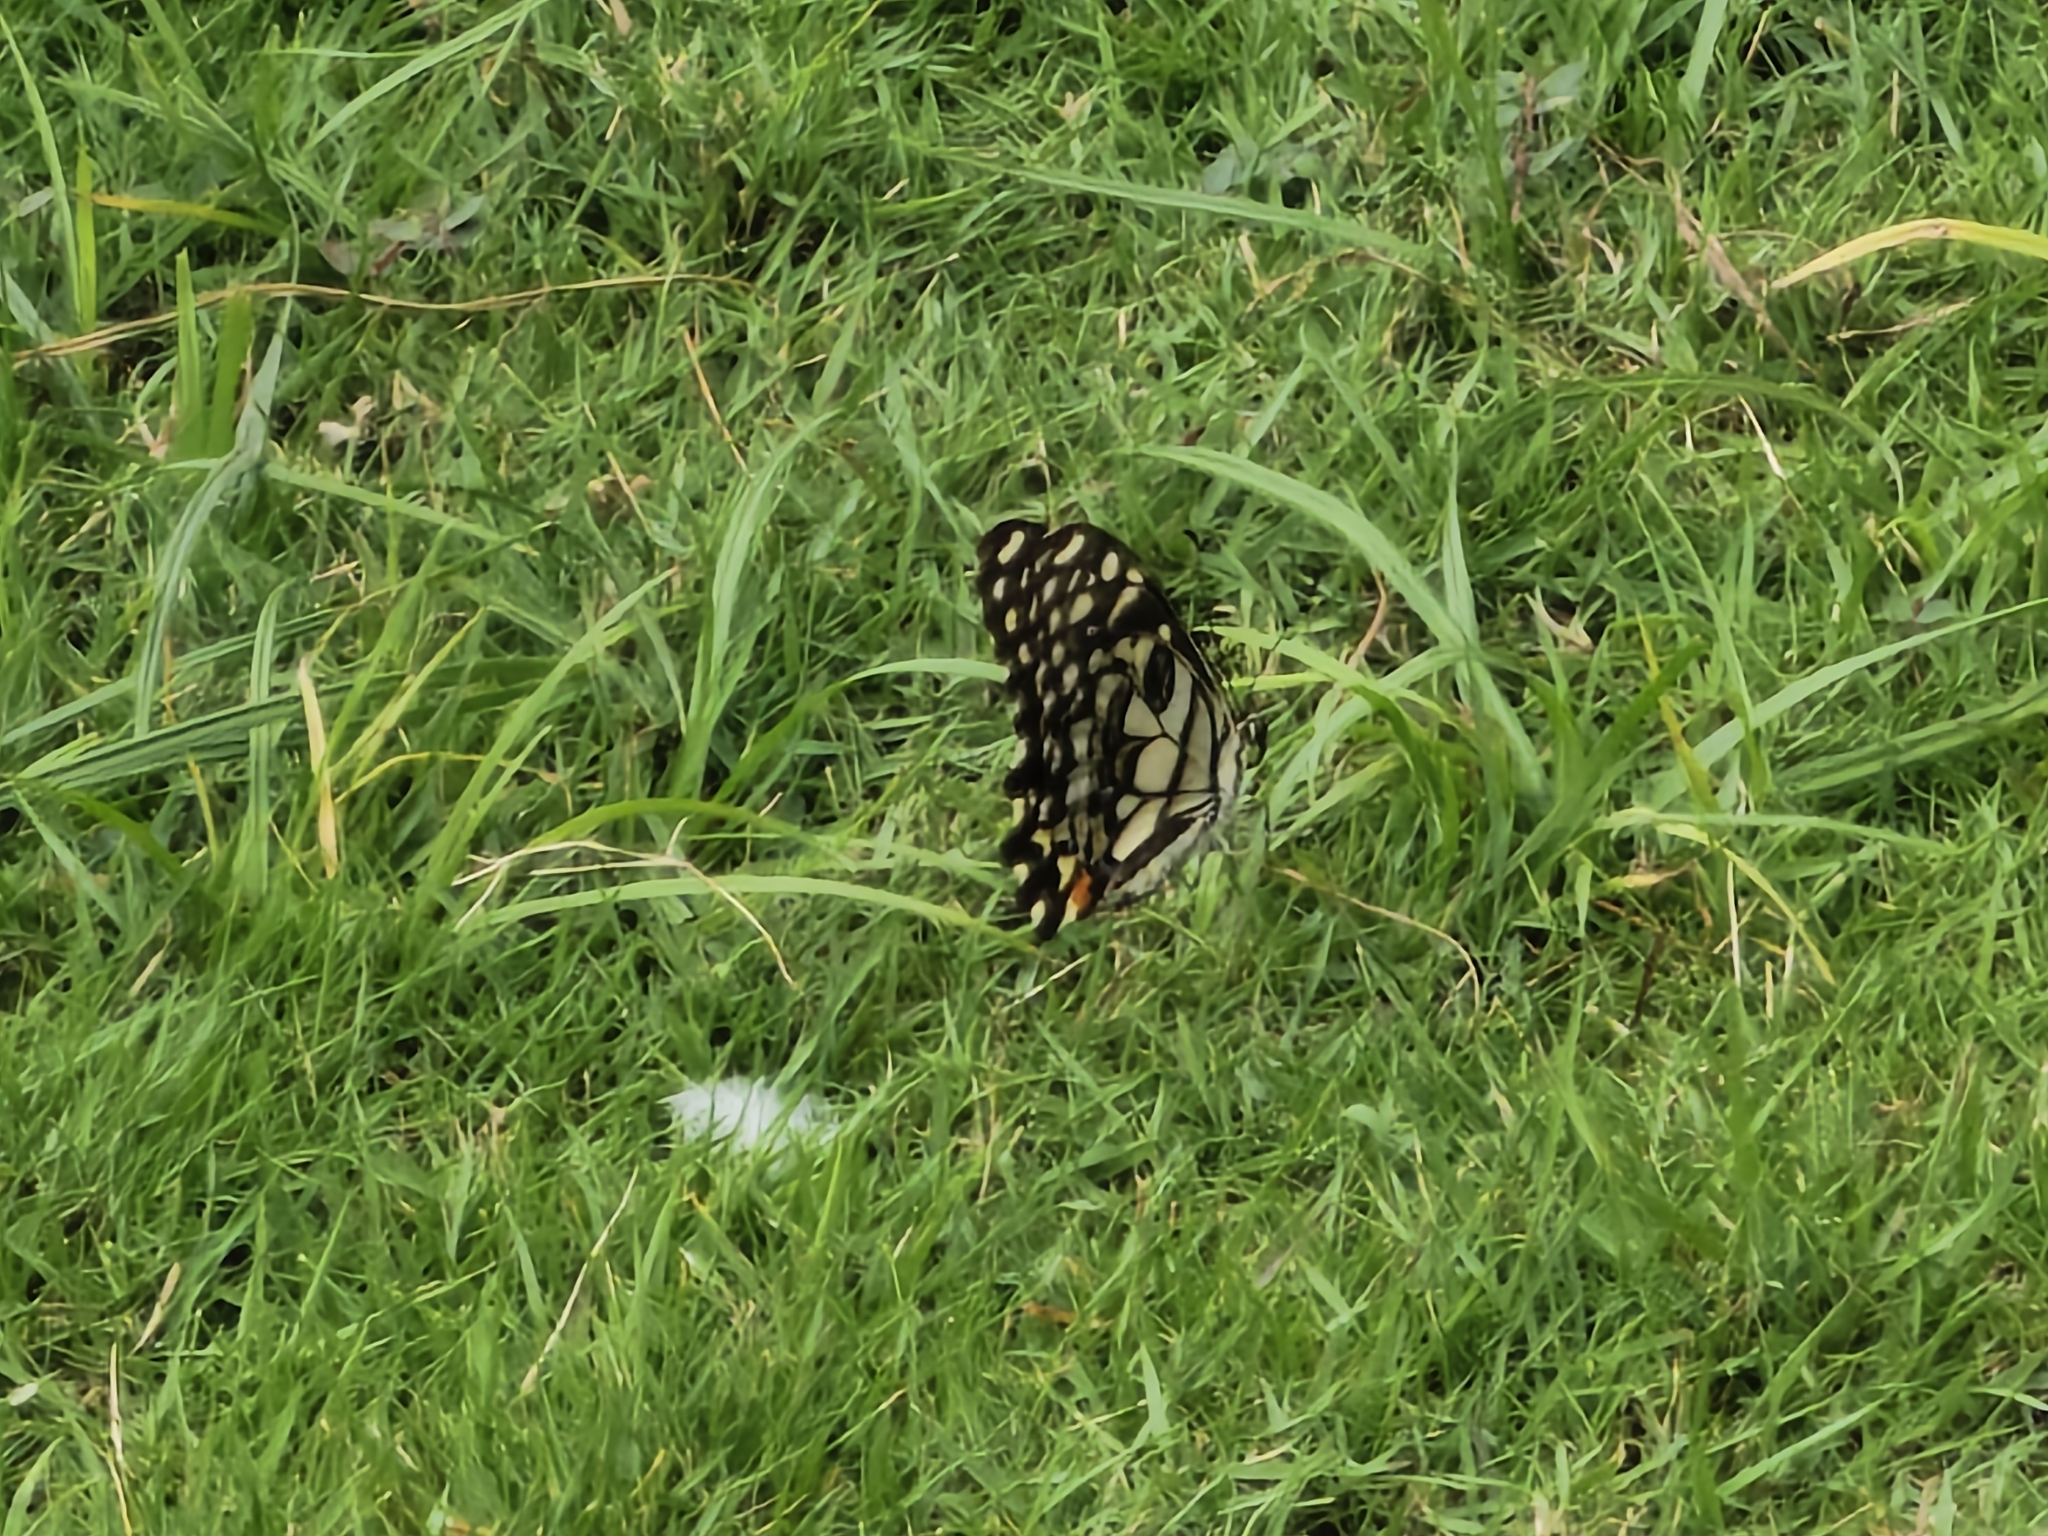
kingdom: Animalia
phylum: Arthropoda
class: Insecta
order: Lepidoptera
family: Papilionidae
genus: Papilio
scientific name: Papilio demoleus
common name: Lime butterfly
